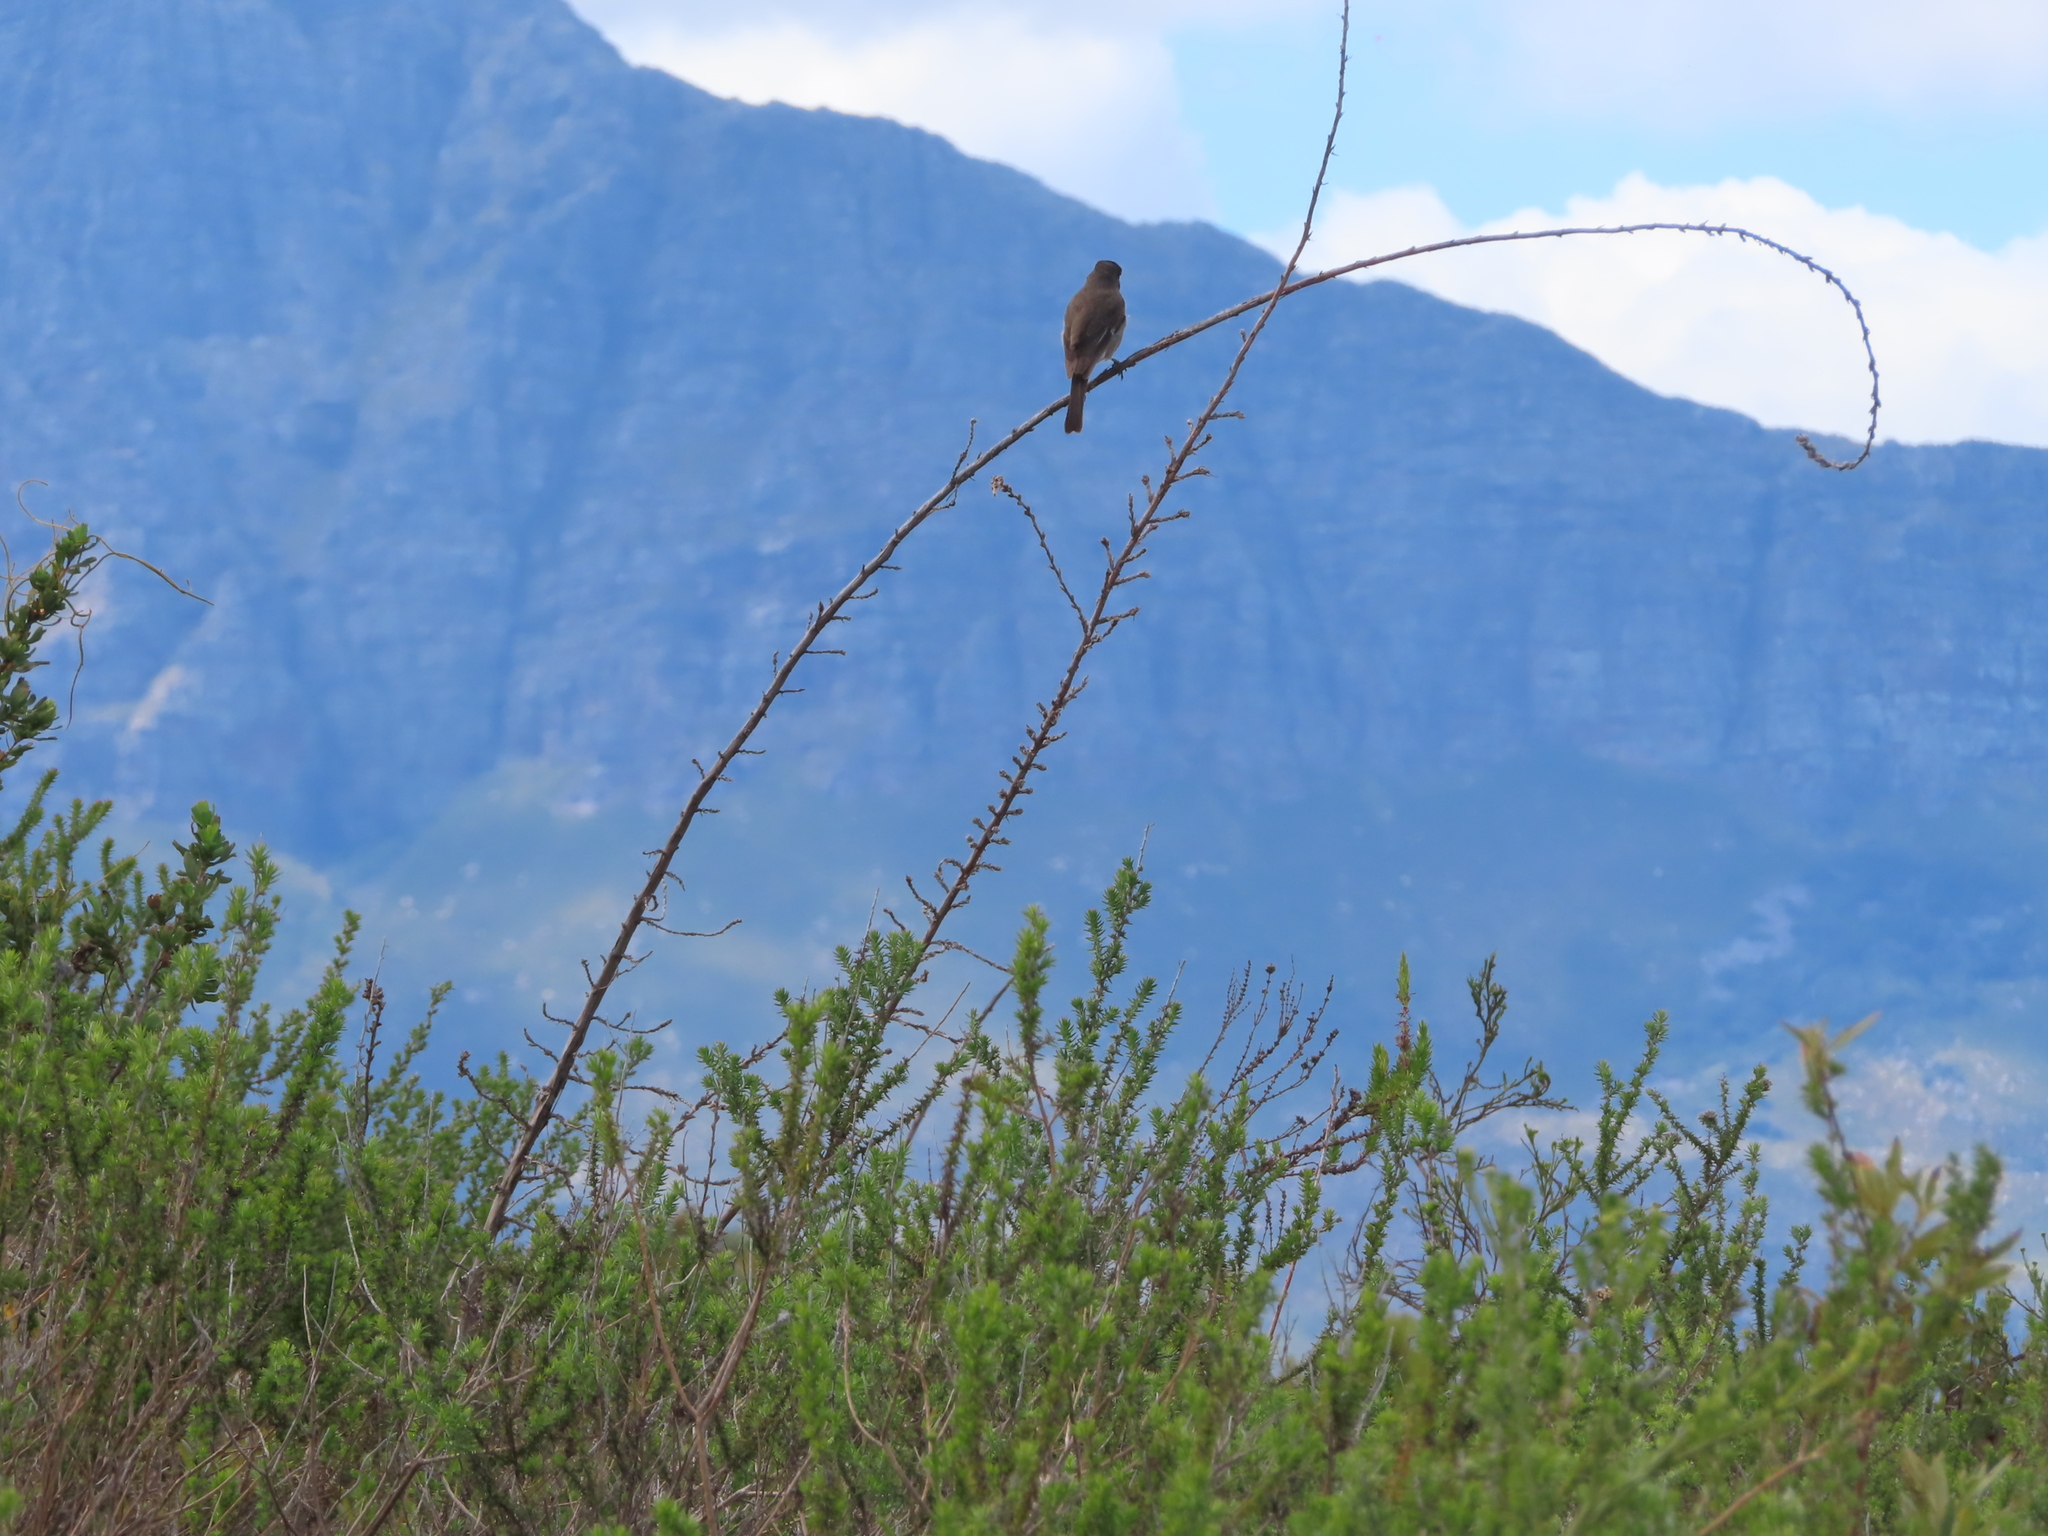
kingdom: Animalia
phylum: Chordata
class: Aves
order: Passeriformes
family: Muscicapidae
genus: Sigelus
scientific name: Sigelus silens
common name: Fiscal flycatcher
